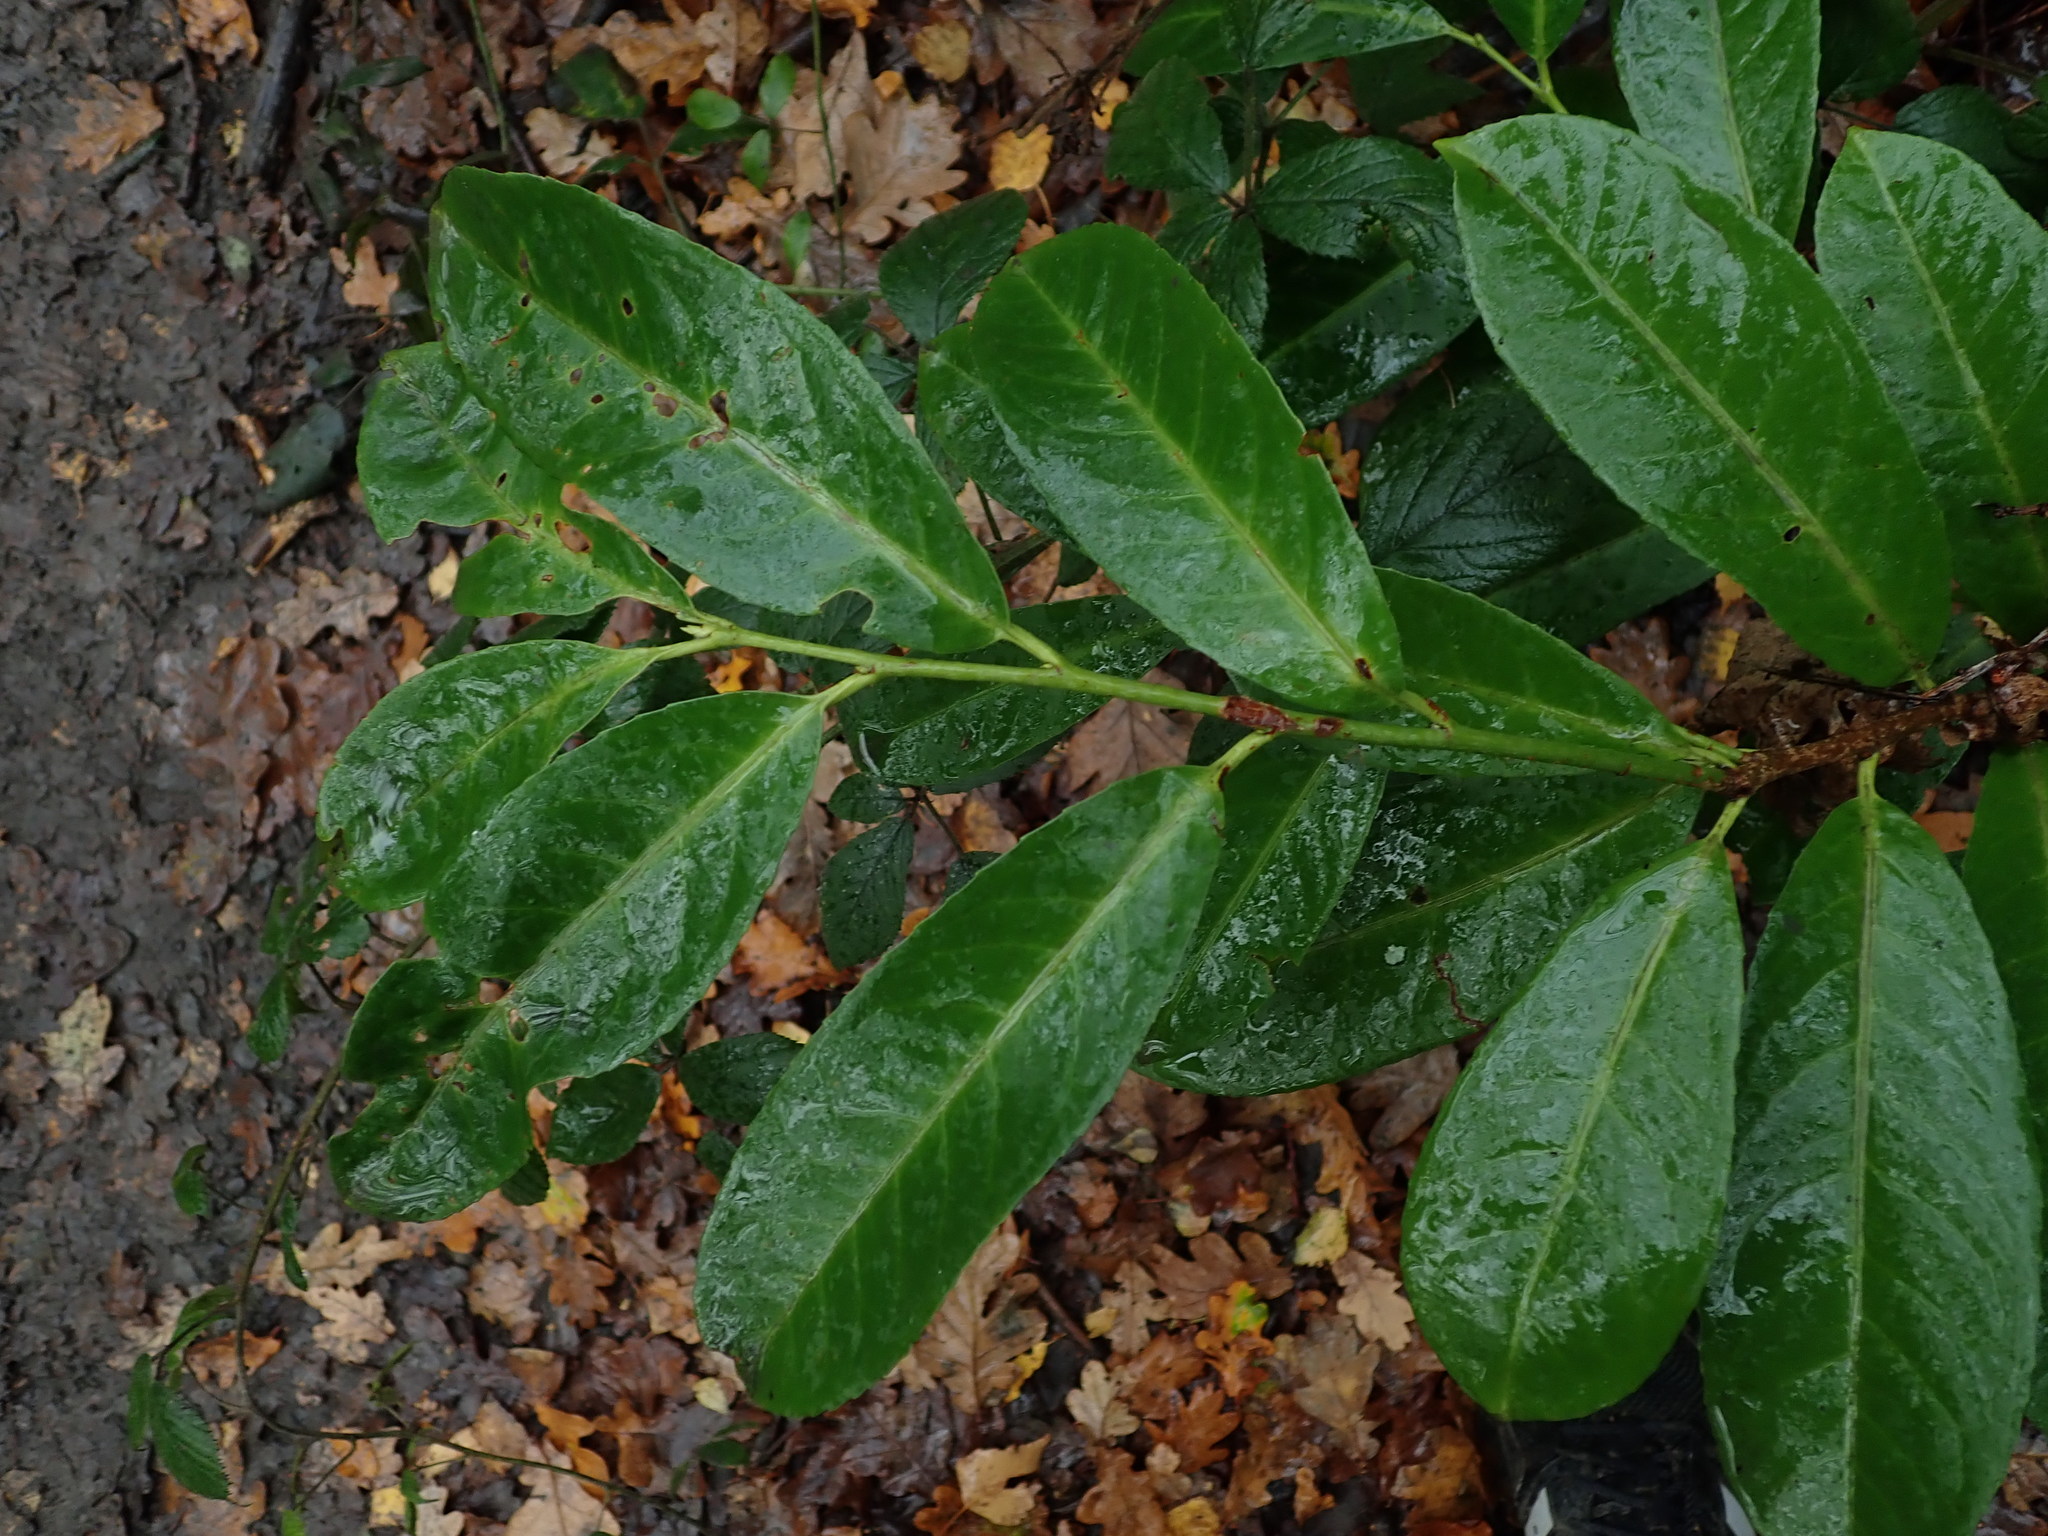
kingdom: Plantae
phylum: Tracheophyta
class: Magnoliopsida
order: Rosales
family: Rosaceae
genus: Prunus
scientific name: Prunus laurocerasus
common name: Cherry laurel
